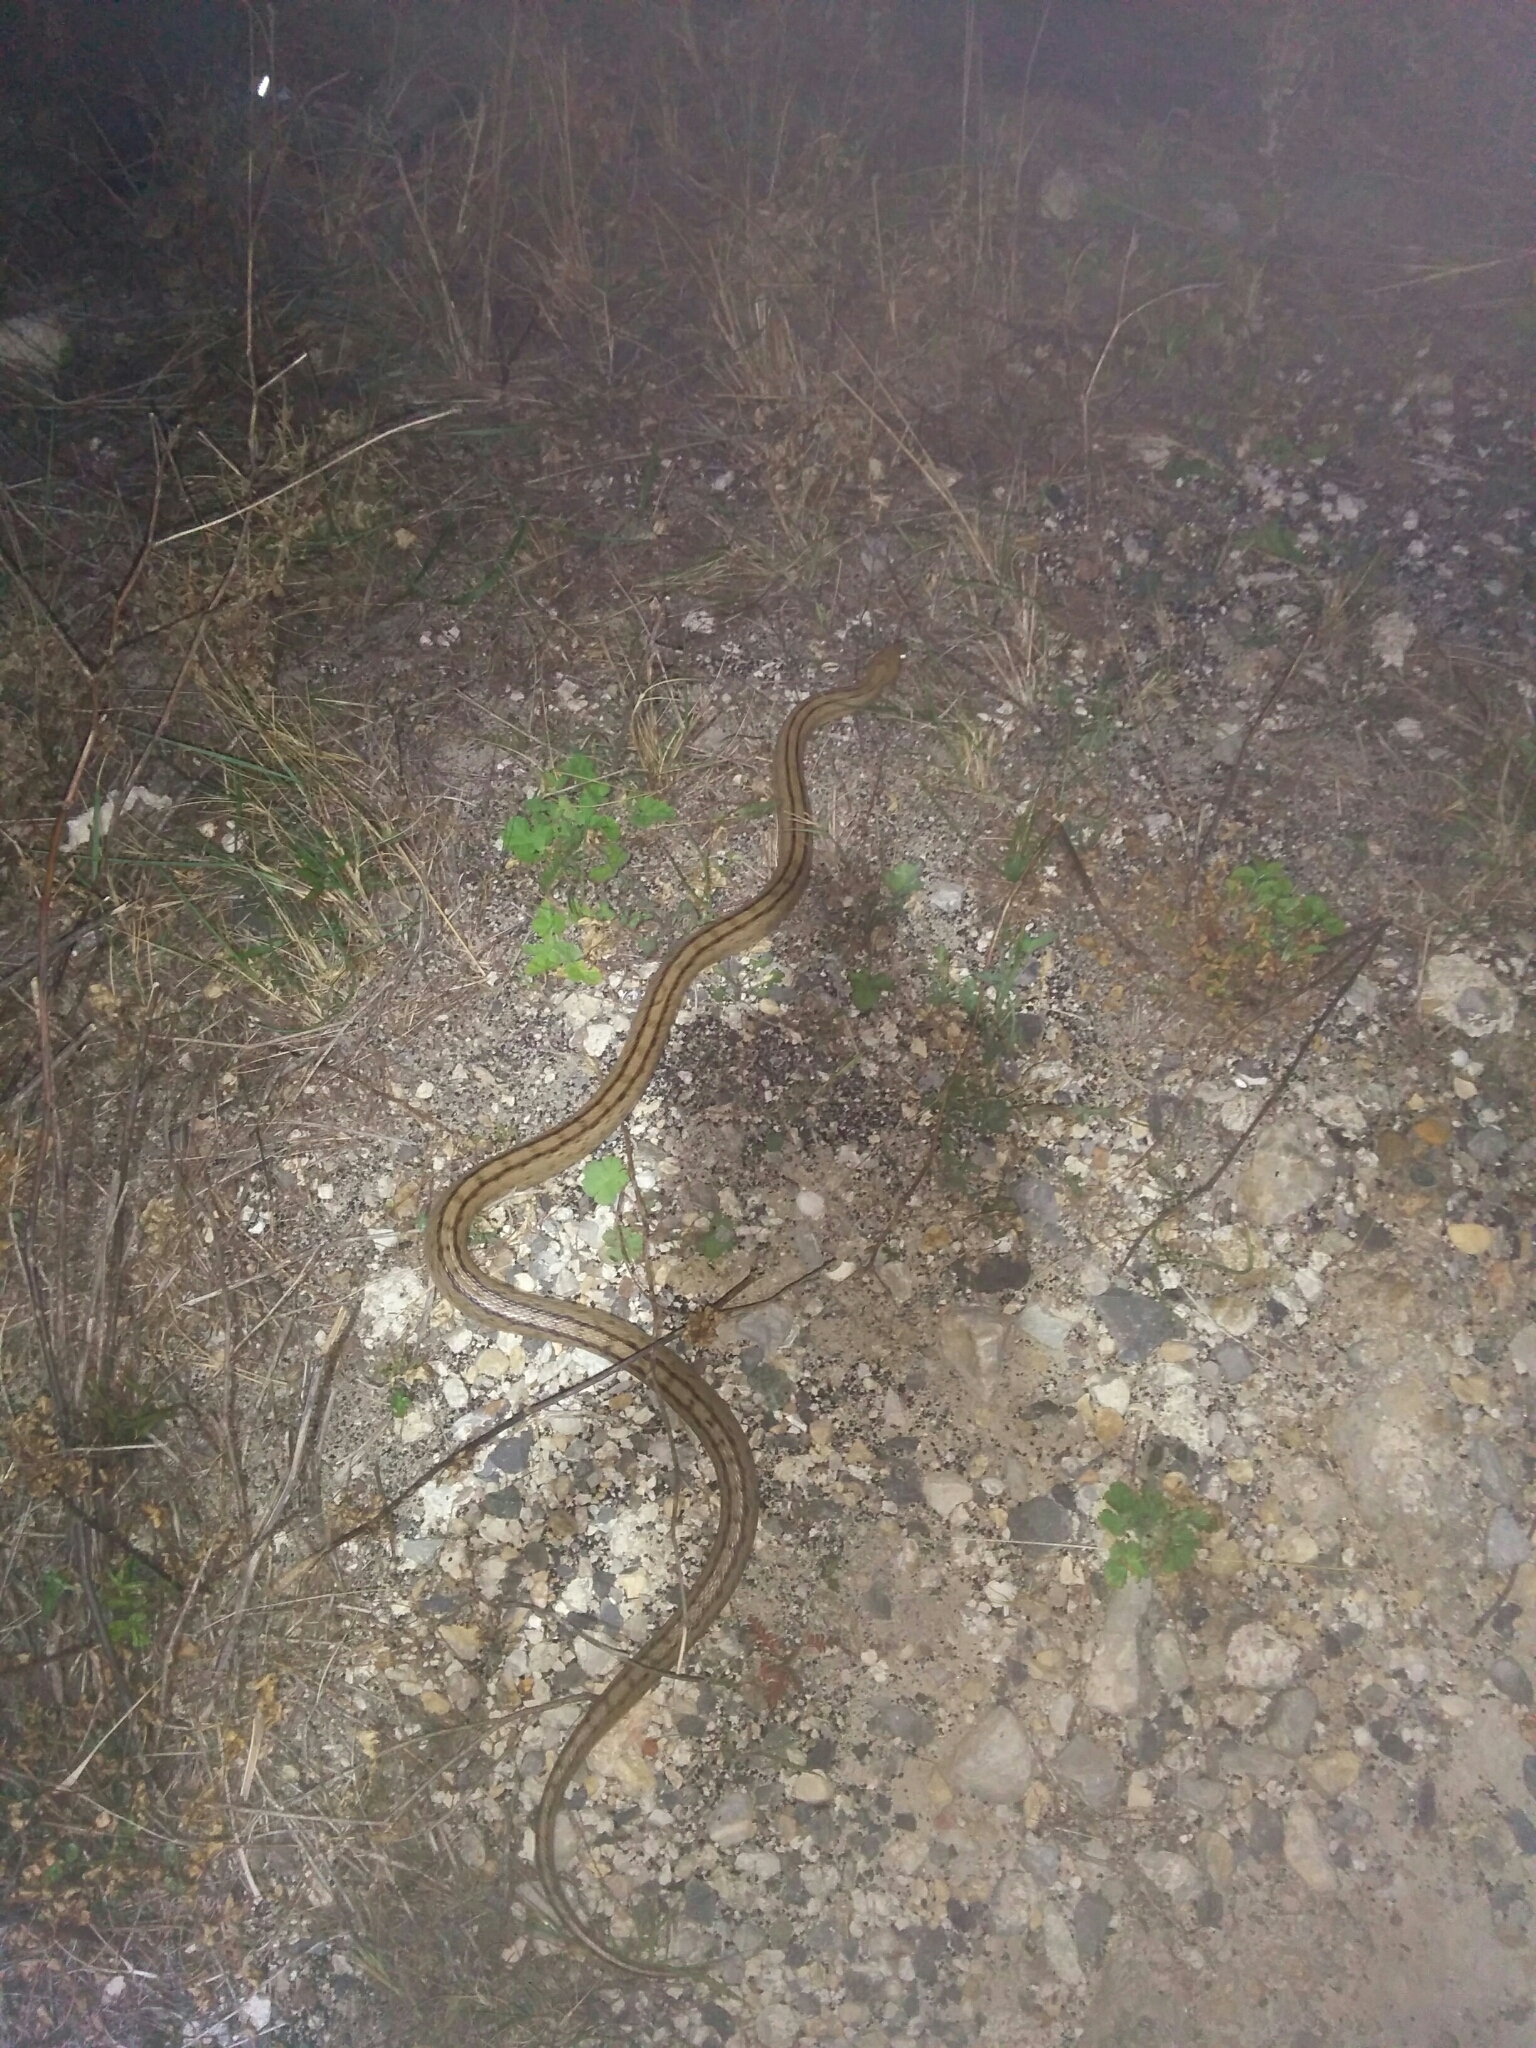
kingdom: Animalia
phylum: Chordata
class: Squamata
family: Colubridae
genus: Zamenis
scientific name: Zamenis scalaris
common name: Ladder snakes
